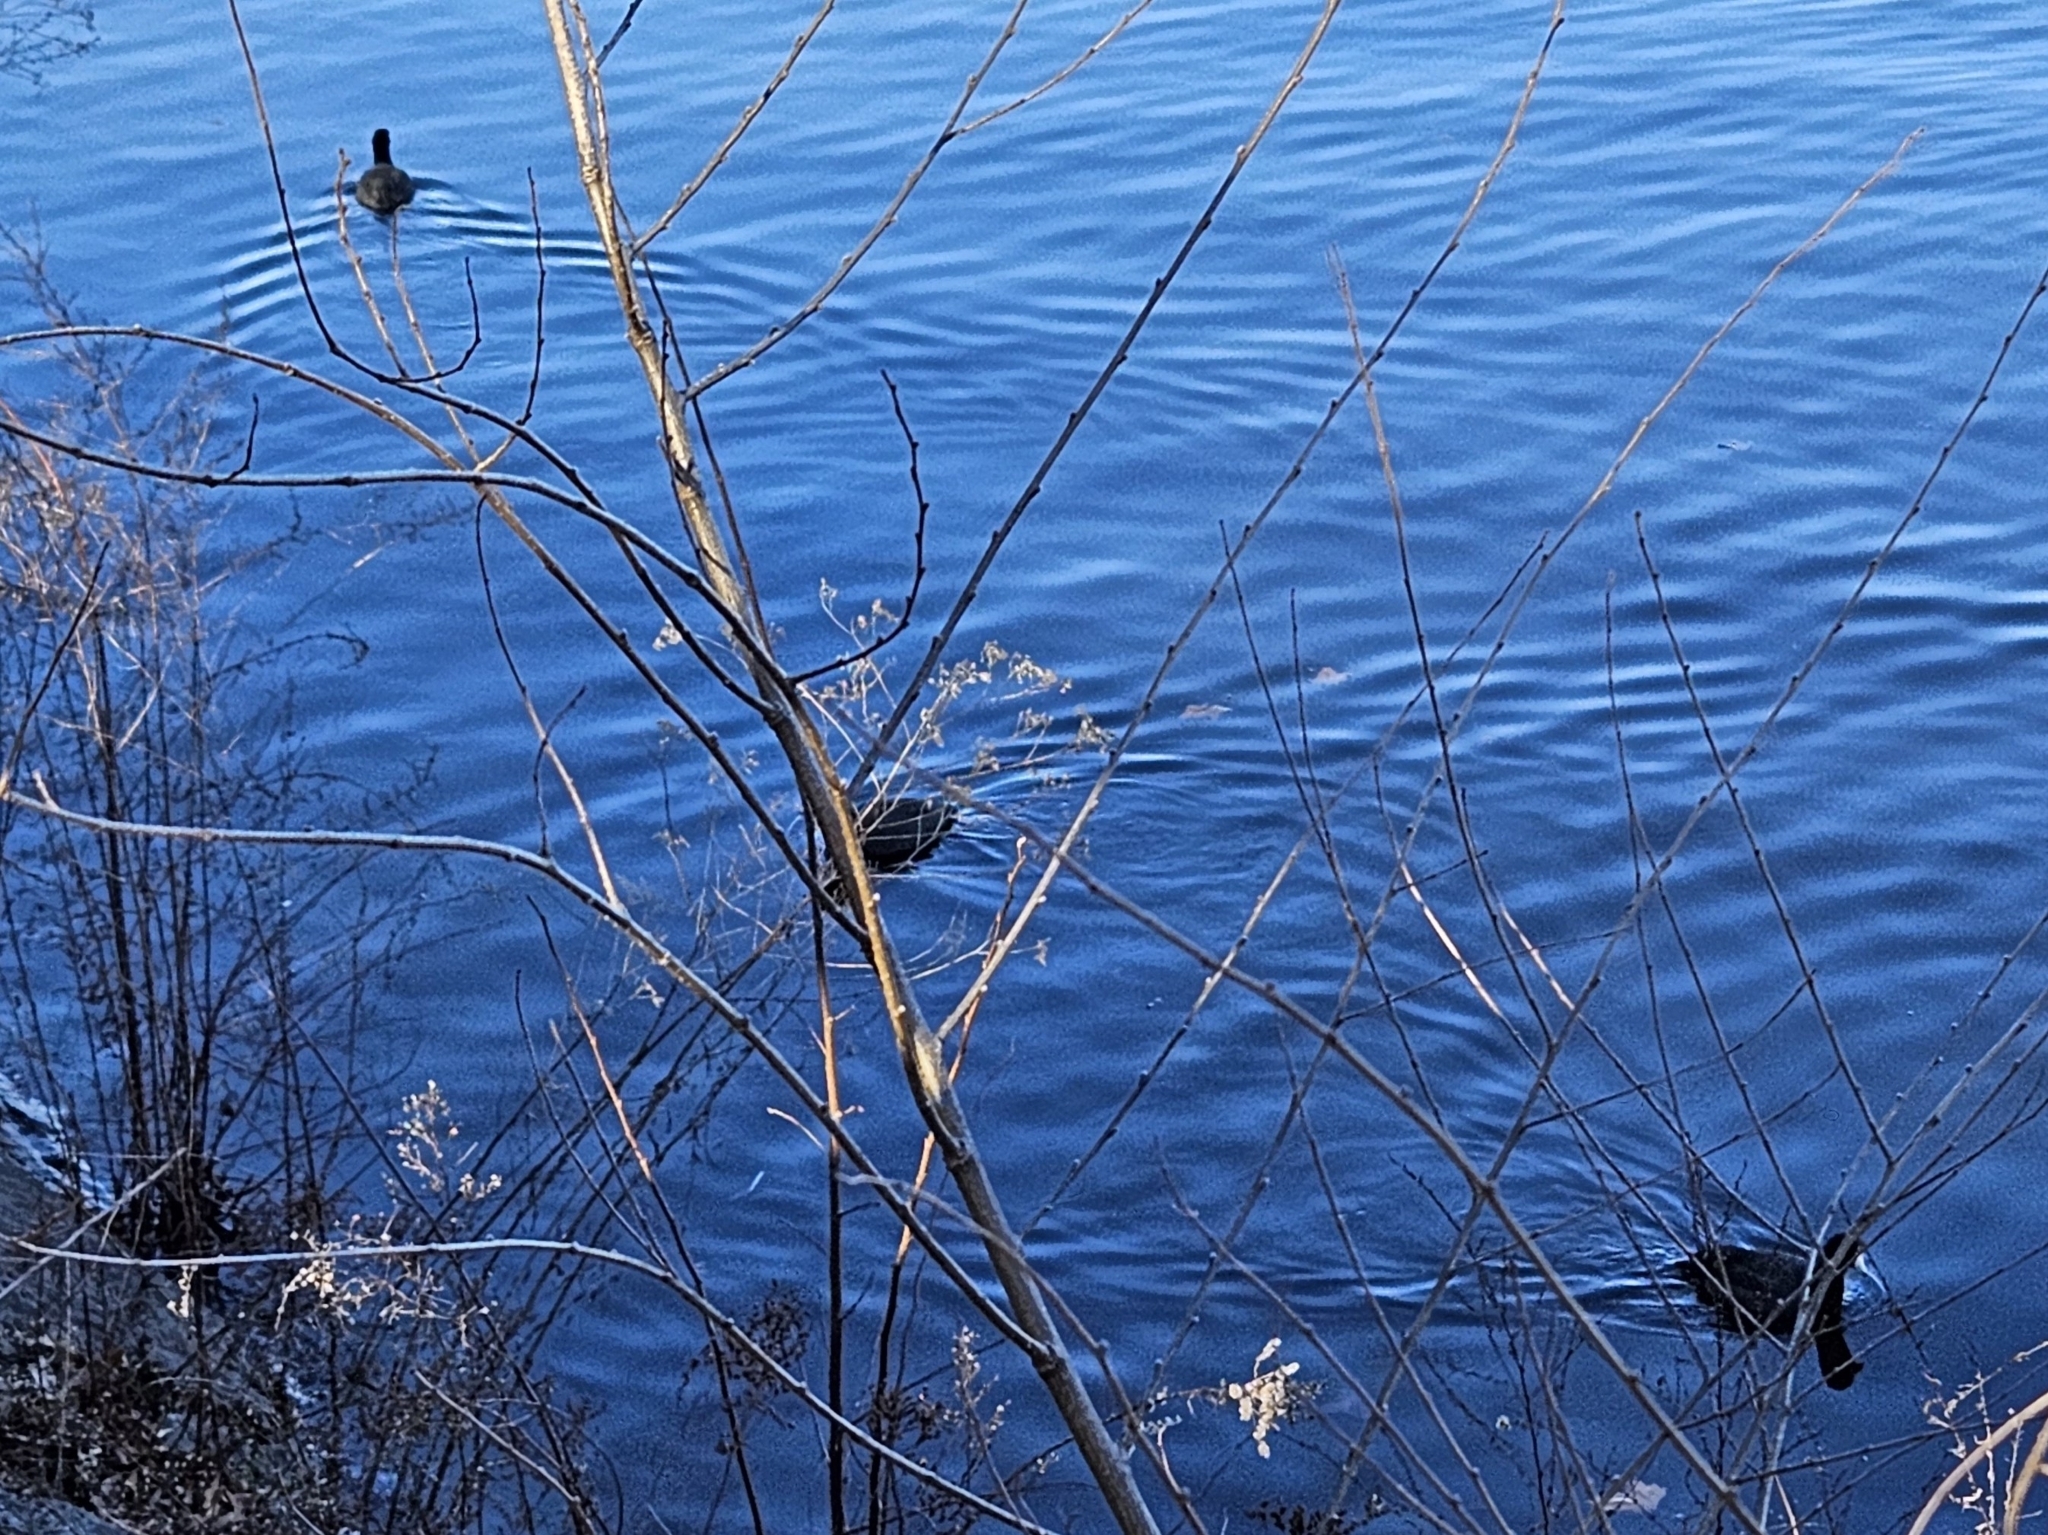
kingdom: Animalia
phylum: Chordata
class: Aves
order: Gruiformes
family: Rallidae
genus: Fulica
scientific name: Fulica americana
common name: American coot
